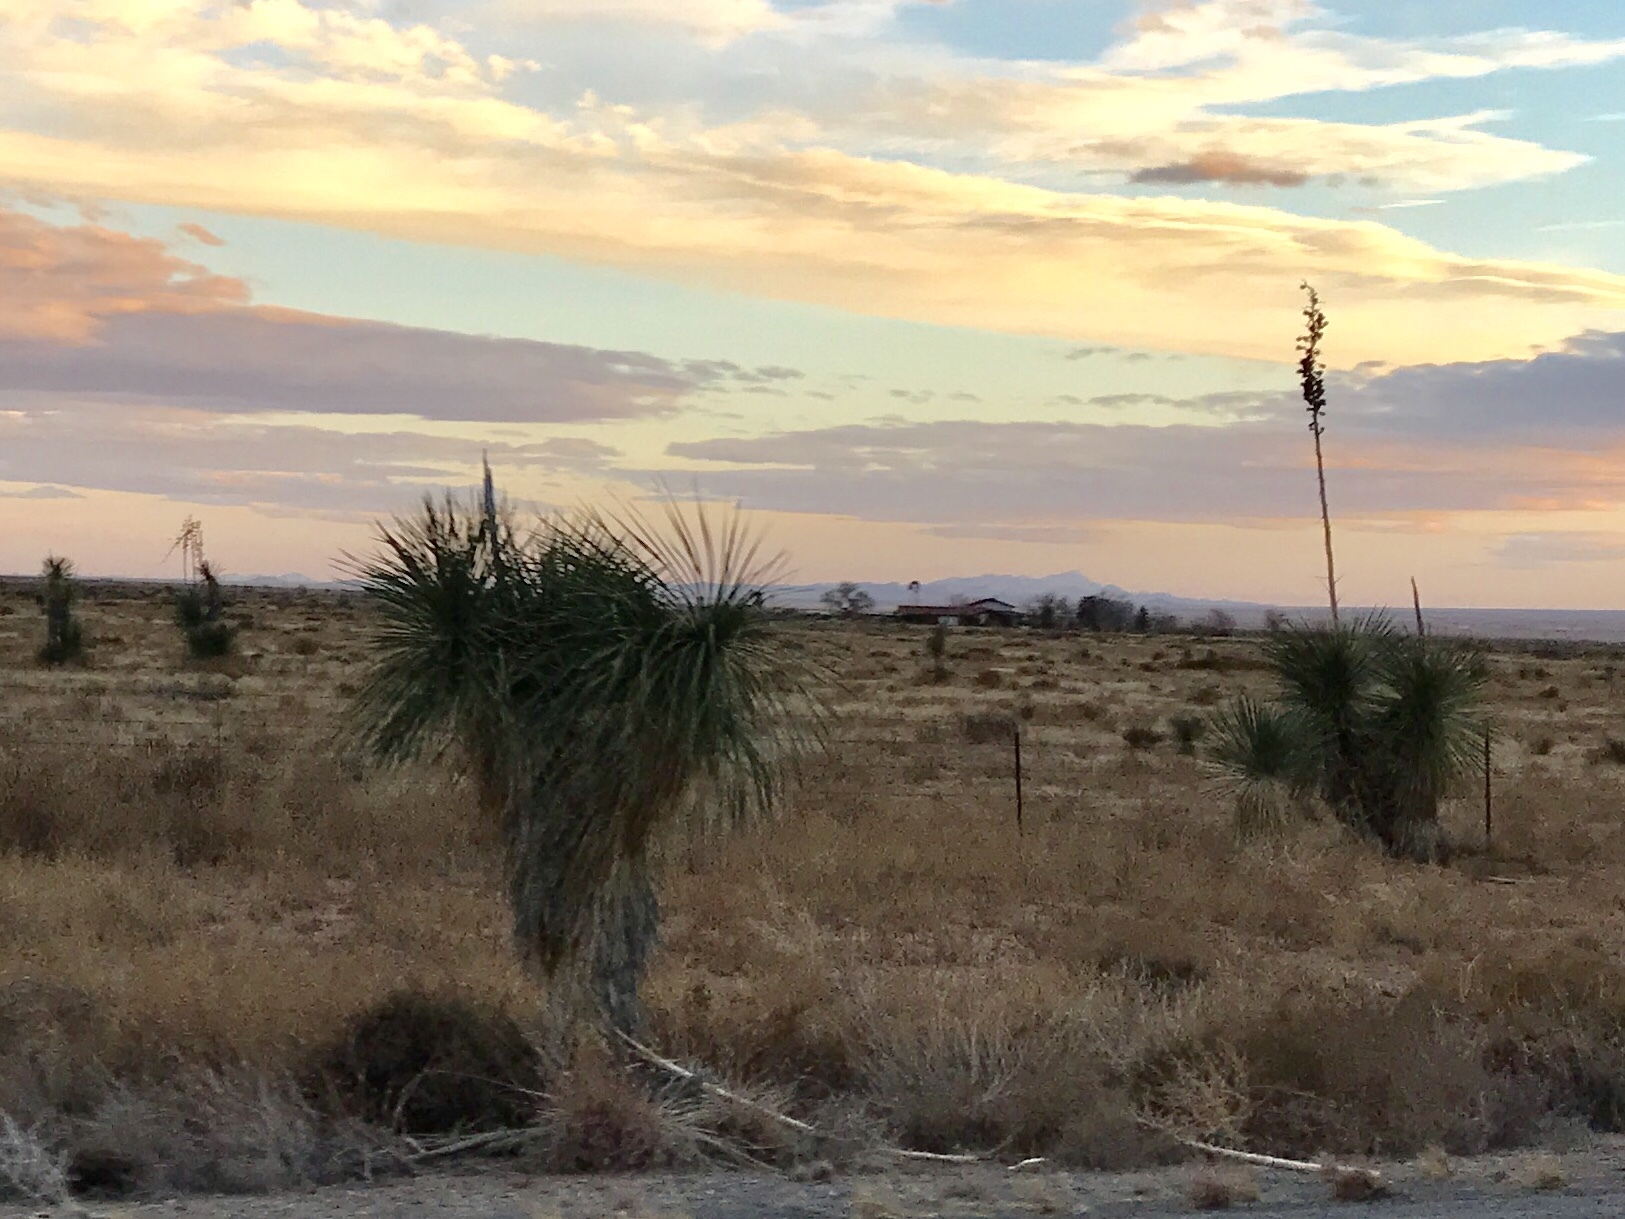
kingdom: Plantae
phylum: Tracheophyta
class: Liliopsida
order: Asparagales
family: Asparagaceae
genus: Yucca
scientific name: Yucca elata
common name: Palmella
